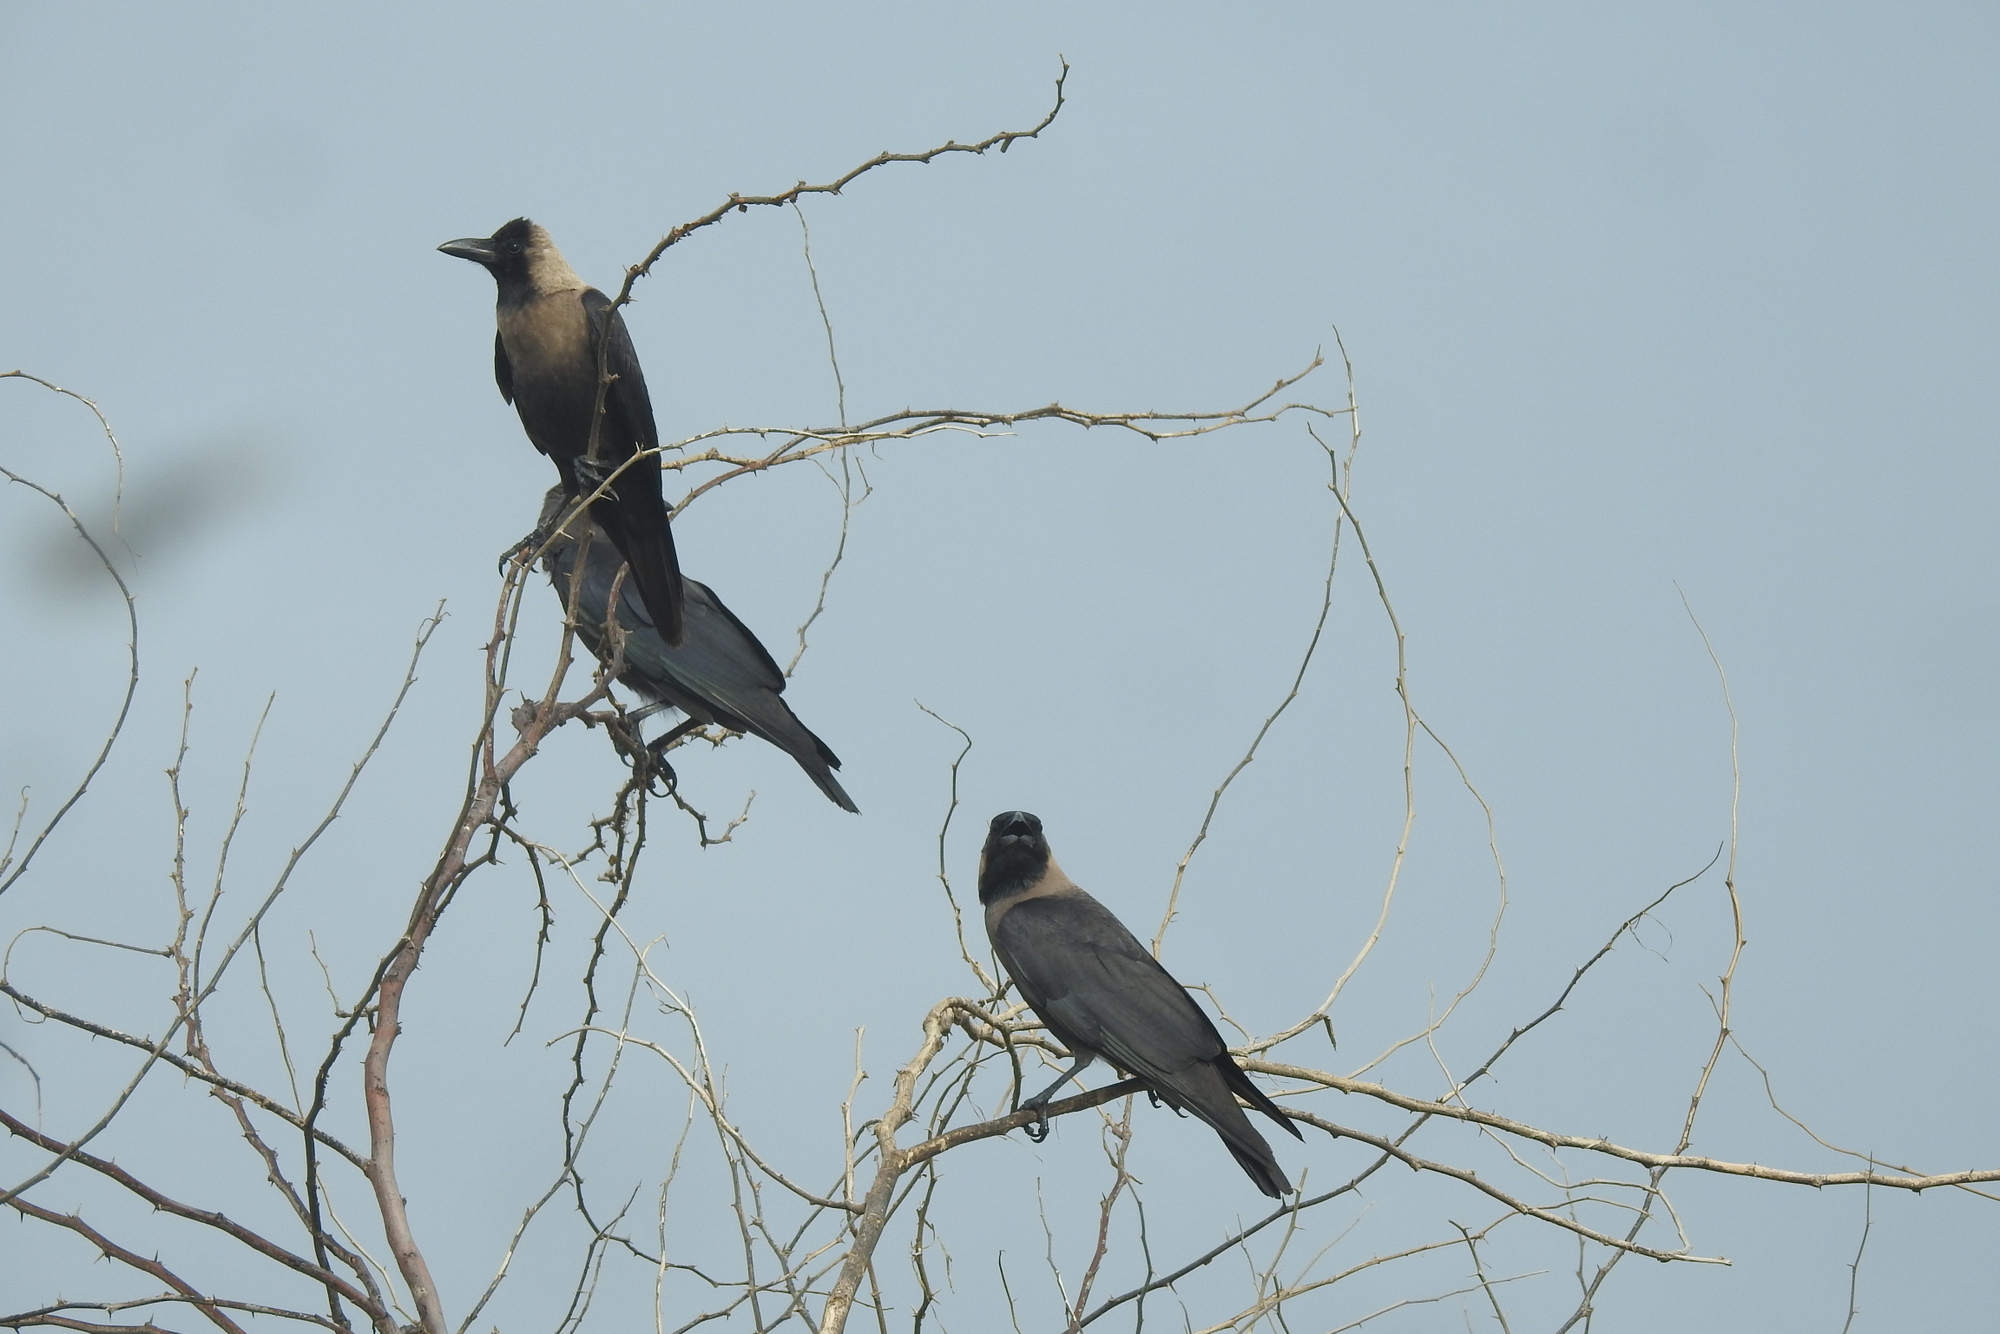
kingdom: Animalia
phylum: Chordata
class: Aves
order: Passeriformes
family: Corvidae
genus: Corvus
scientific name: Corvus splendens
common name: House crow
